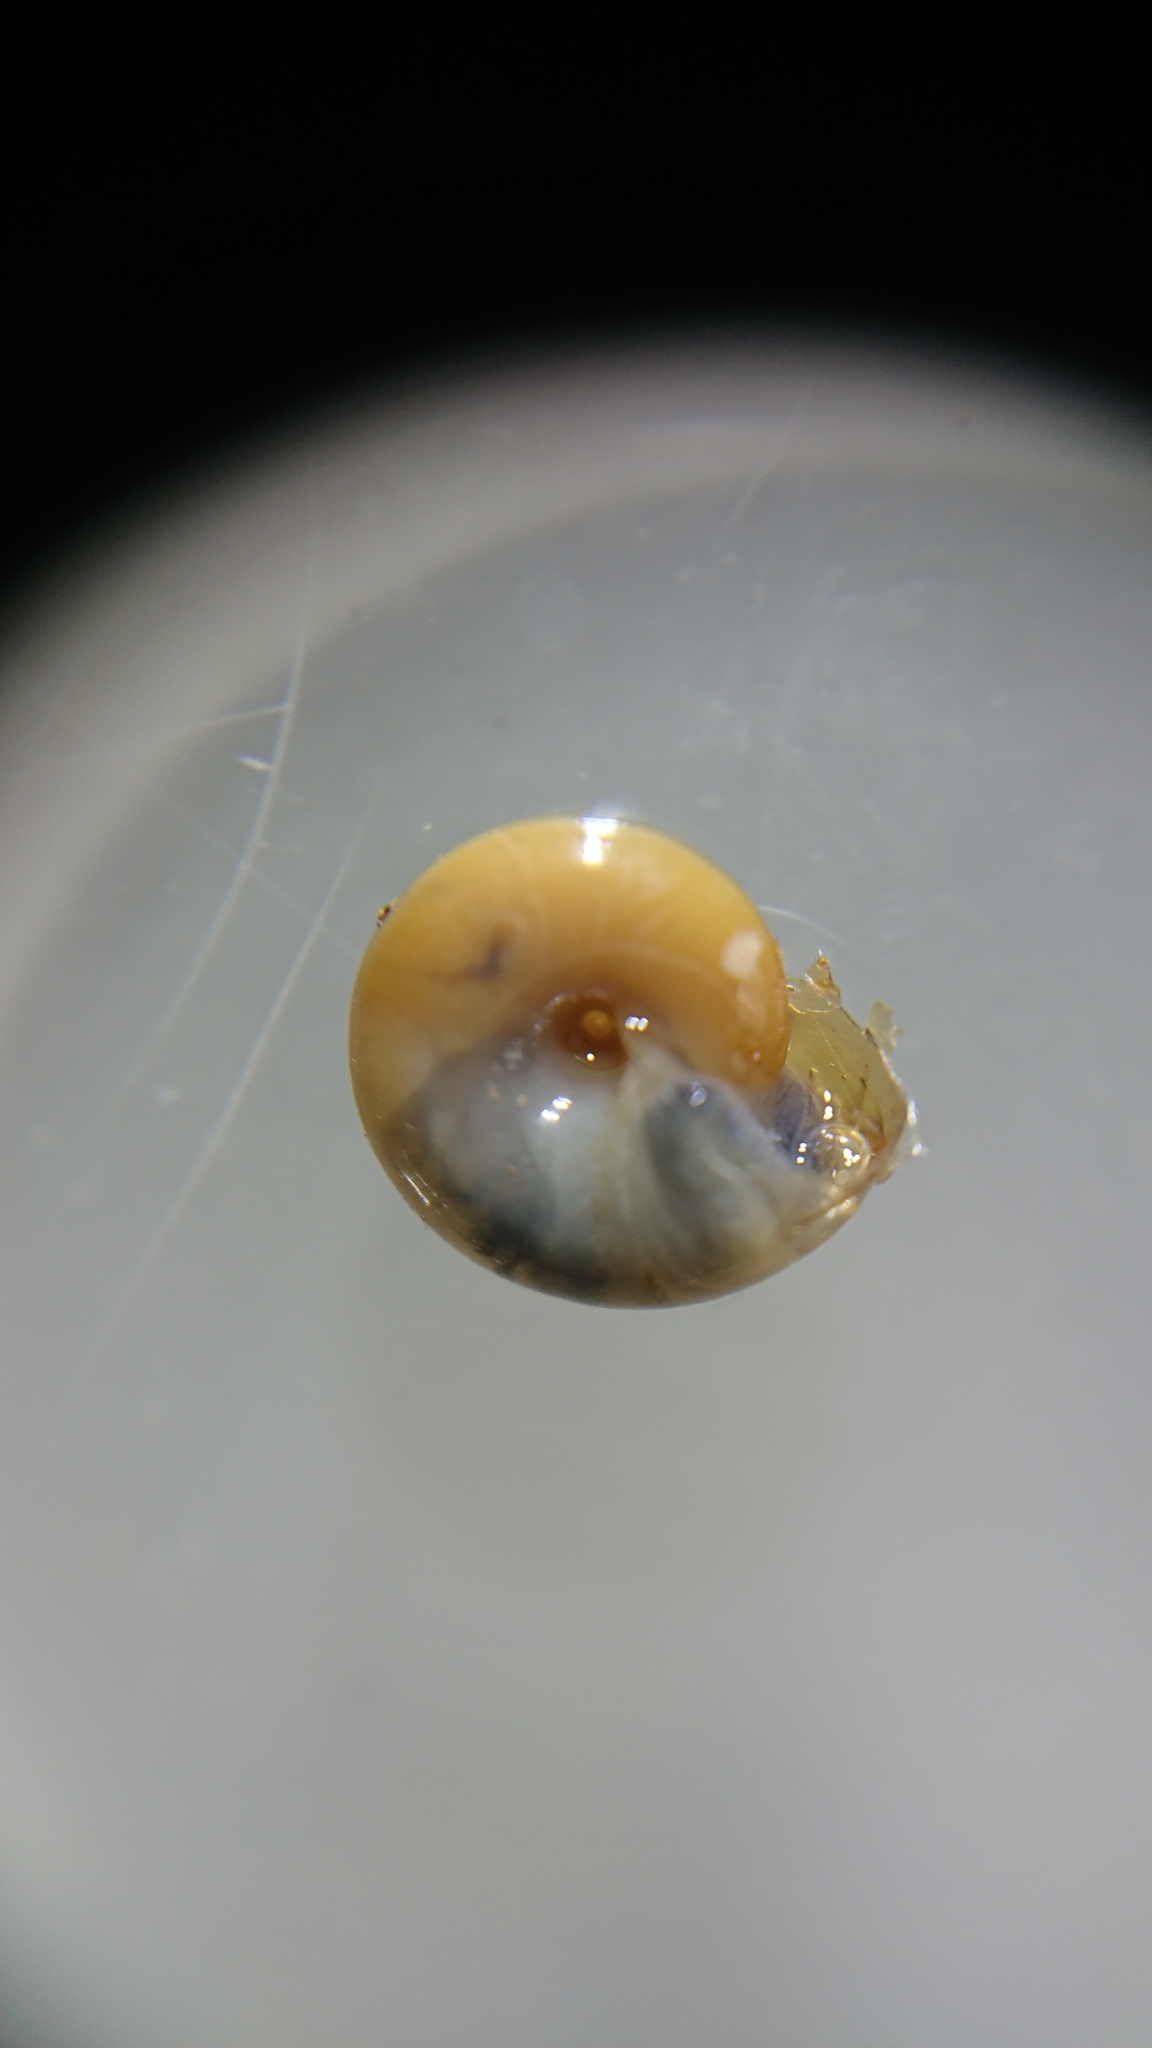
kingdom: Animalia
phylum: Mollusca
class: Gastropoda
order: Stylommatophora
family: Oxychilidae
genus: Oxychilus
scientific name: Oxychilus cellarius
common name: Cellar glass-snail
